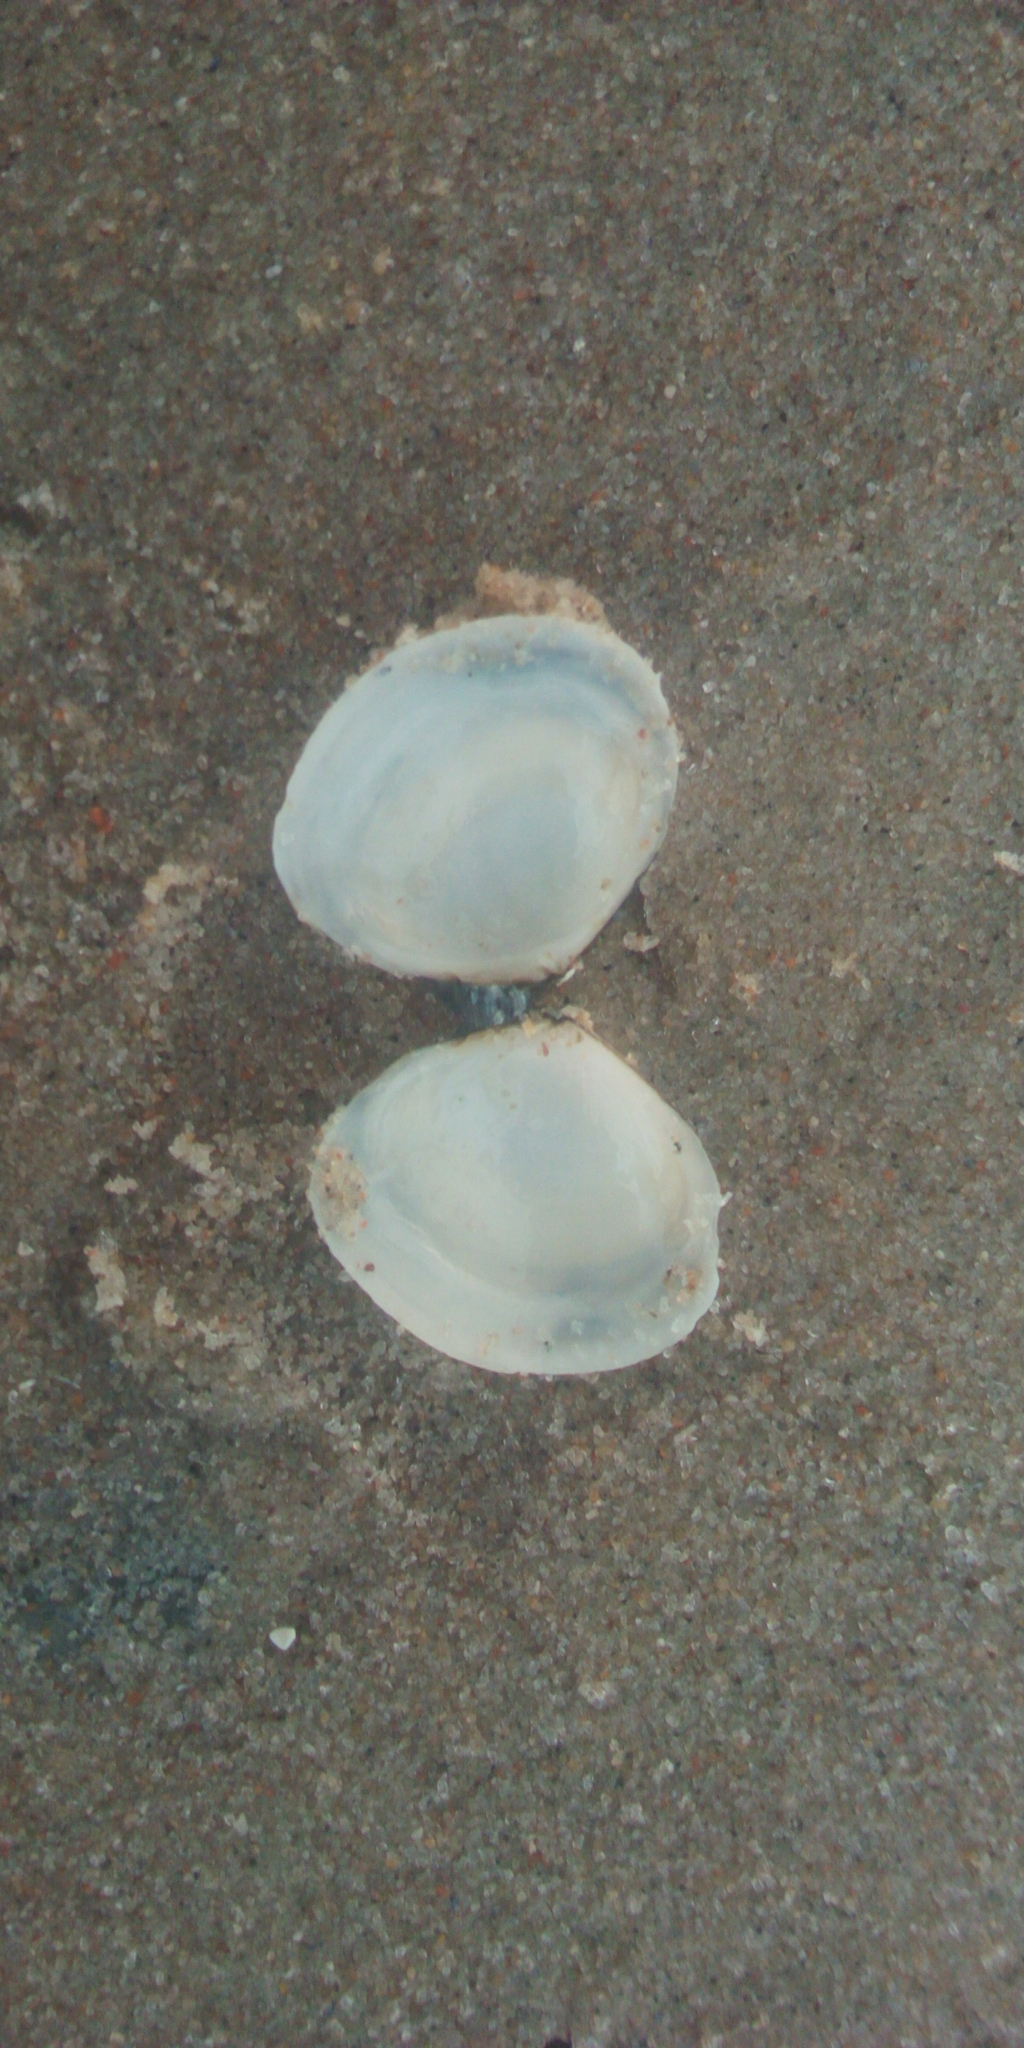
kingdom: Animalia
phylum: Mollusca
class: Bivalvia
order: Cardiida
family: Tellinidae
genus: Macoma
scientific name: Macoma balthica
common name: Baltic tellin
